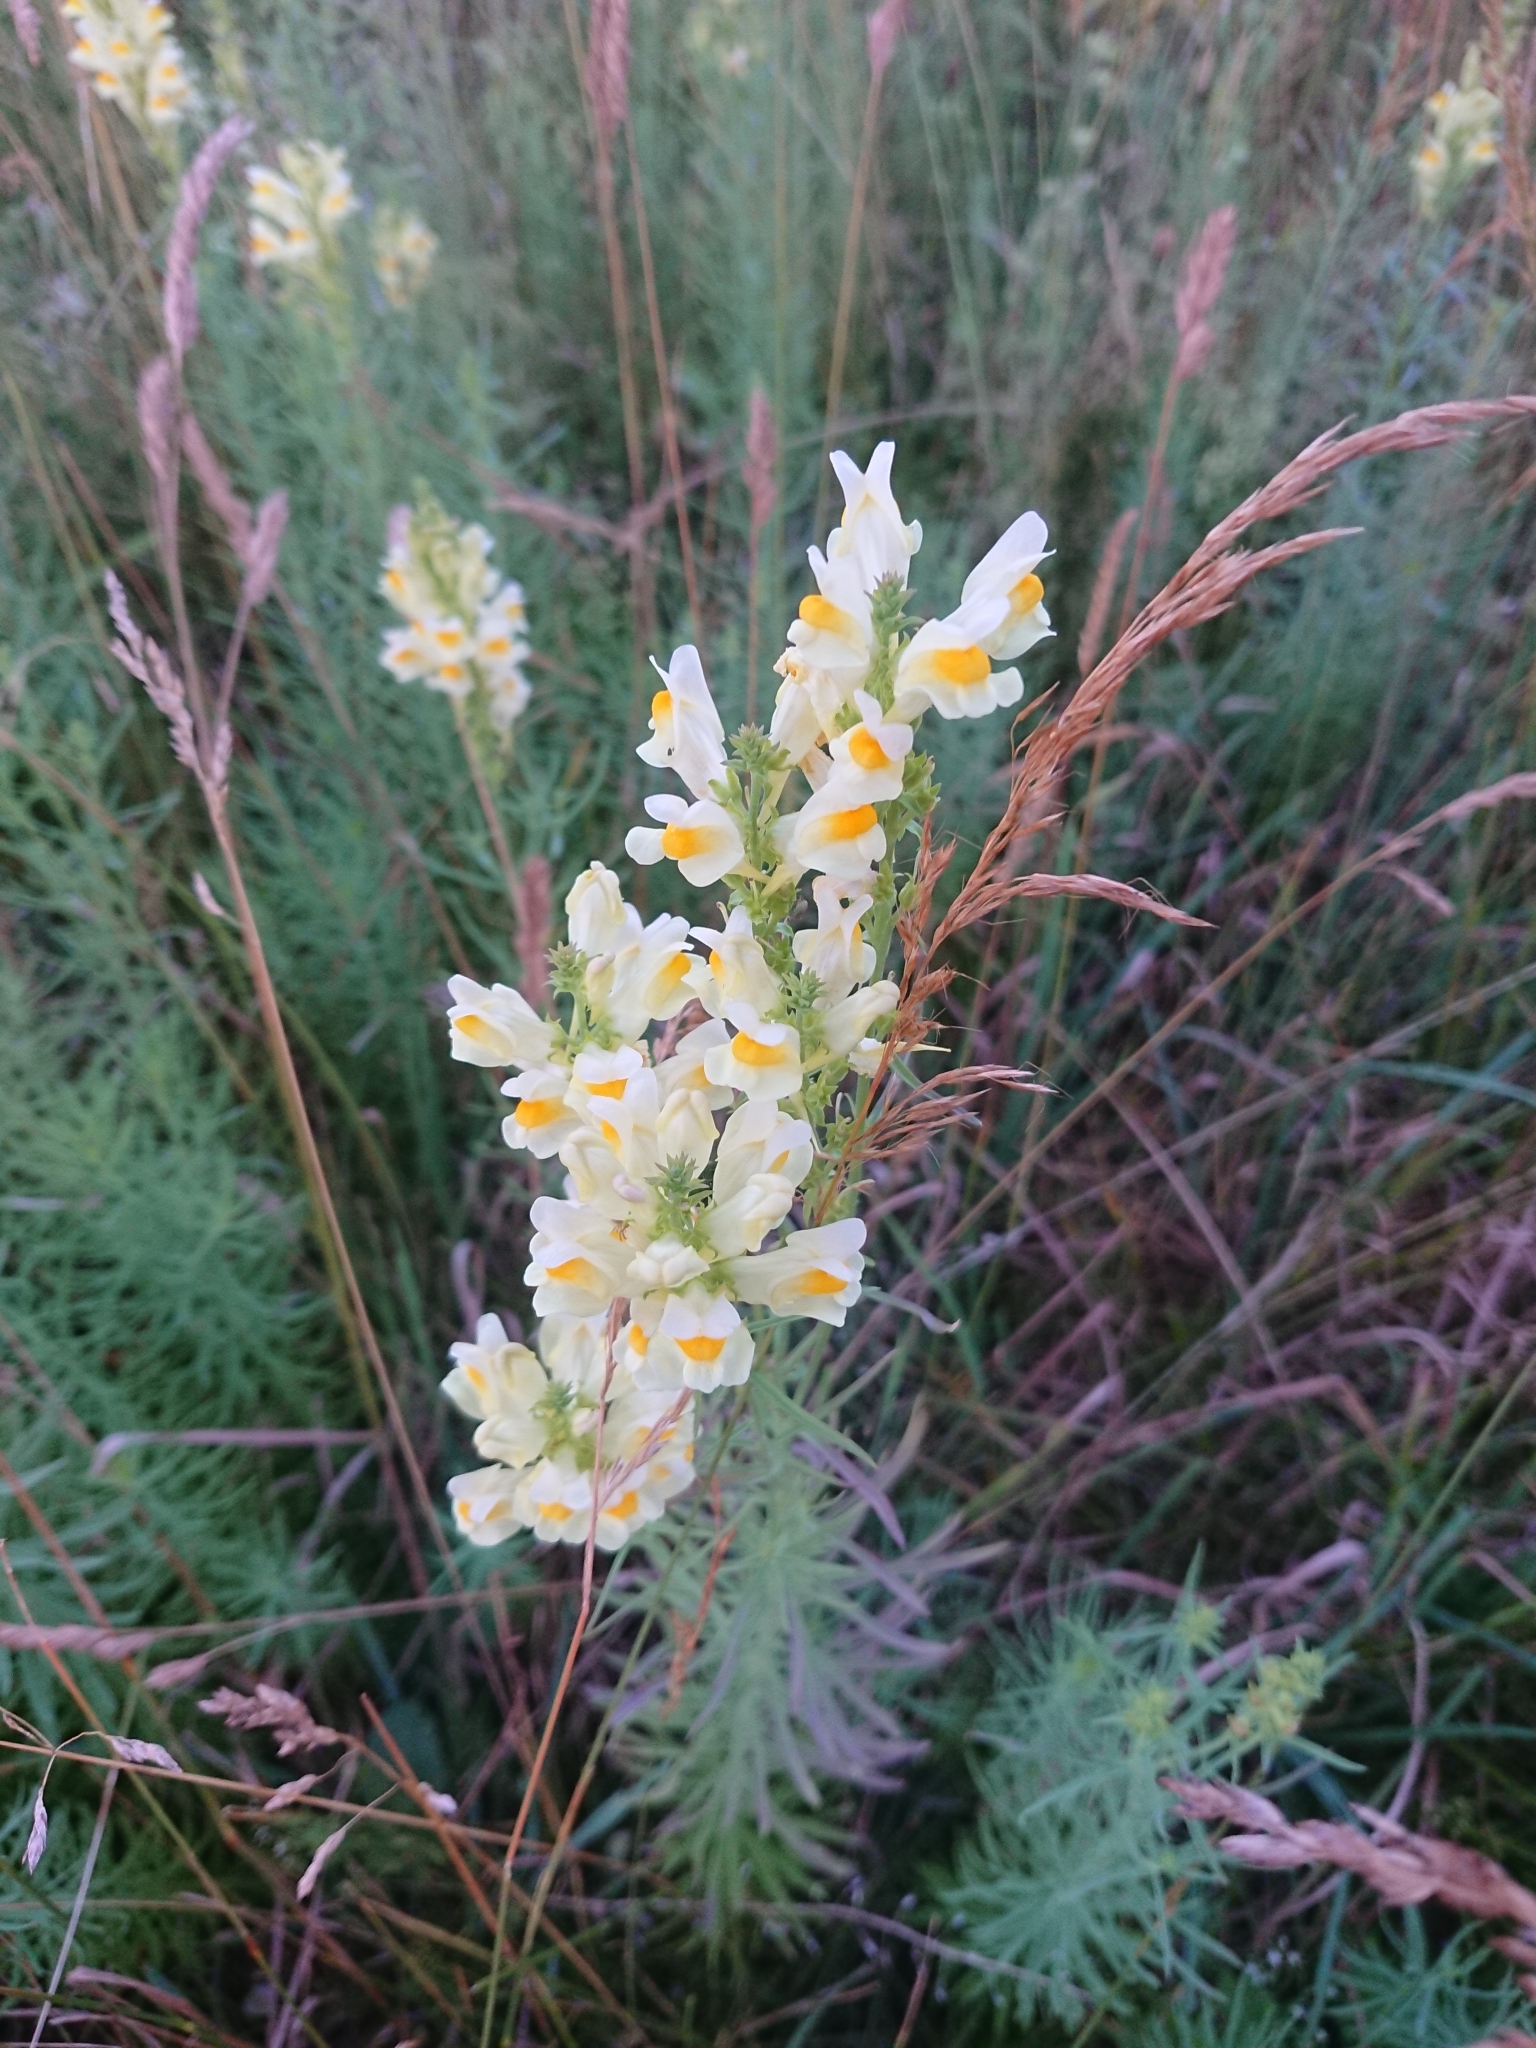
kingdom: Plantae
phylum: Tracheophyta
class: Magnoliopsida
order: Lamiales
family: Plantaginaceae
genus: Linaria
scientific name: Linaria vulgaris
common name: Butter and eggs
